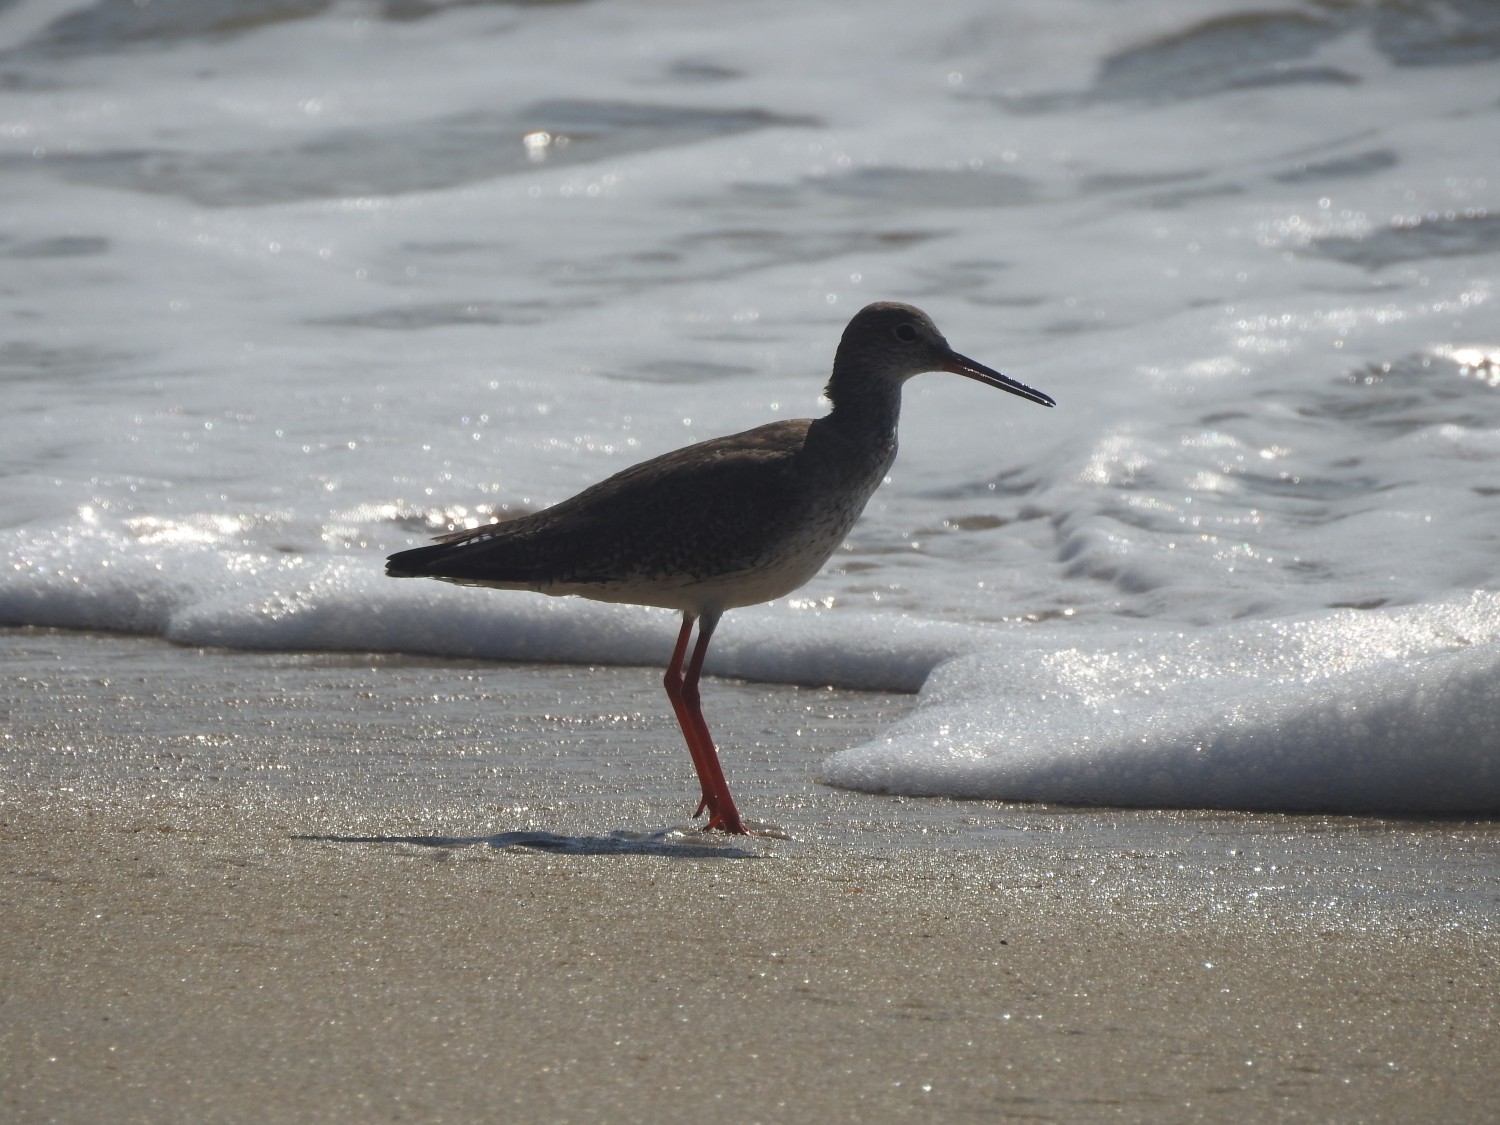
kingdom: Animalia
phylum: Chordata
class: Aves
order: Charadriiformes
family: Scolopacidae
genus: Tringa
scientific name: Tringa totanus
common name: Common redshank
